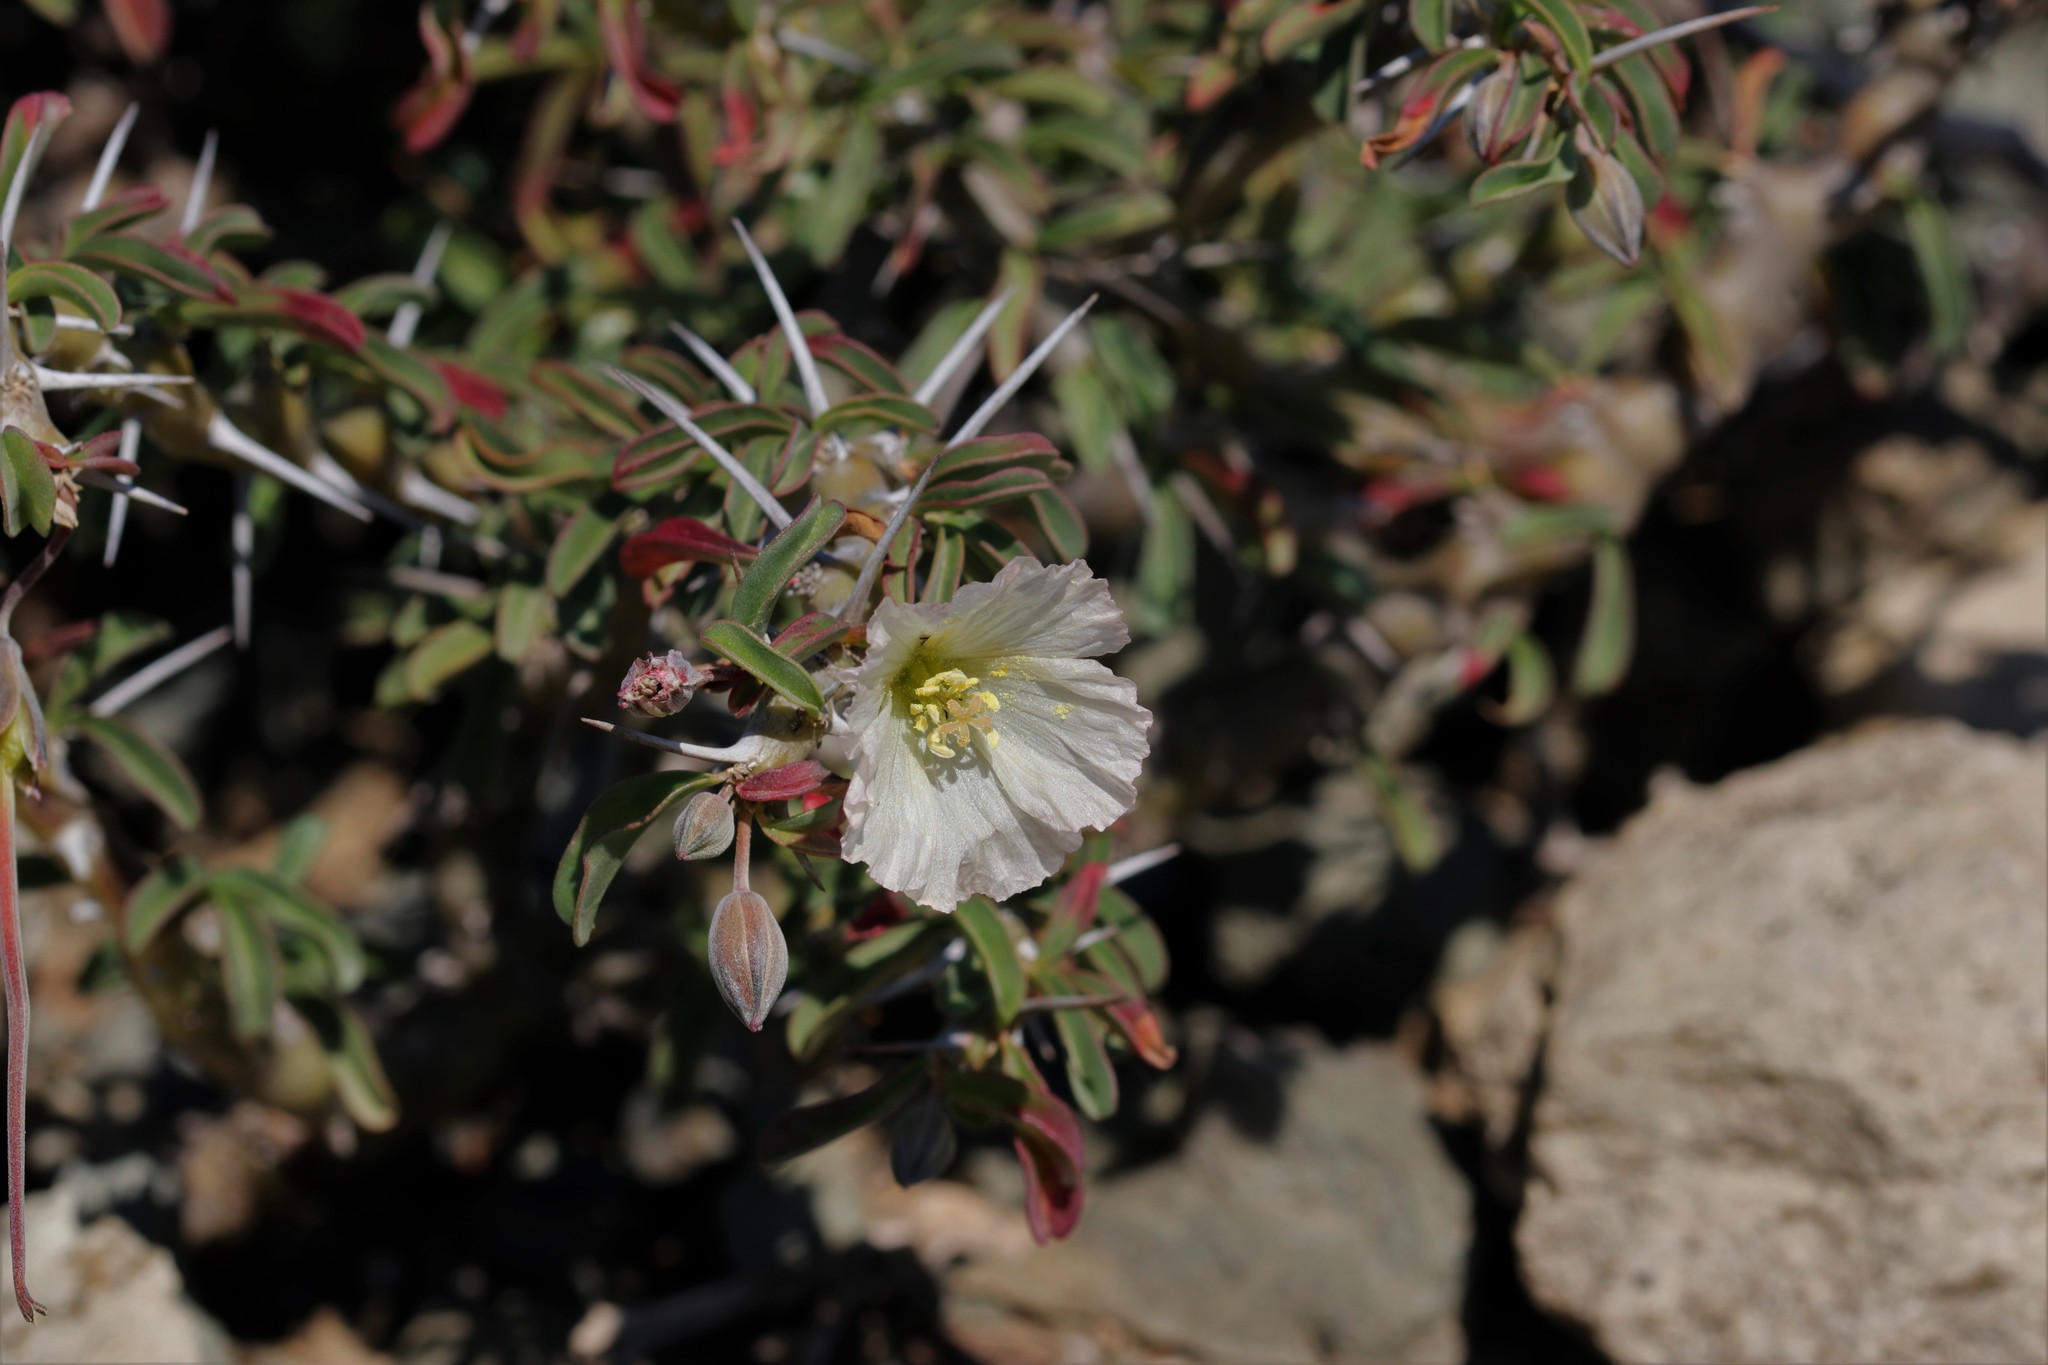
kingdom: Plantae
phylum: Tracheophyta
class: Magnoliopsida
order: Geraniales
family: Geraniaceae
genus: Monsonia
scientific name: Monsonia camdeboensis
